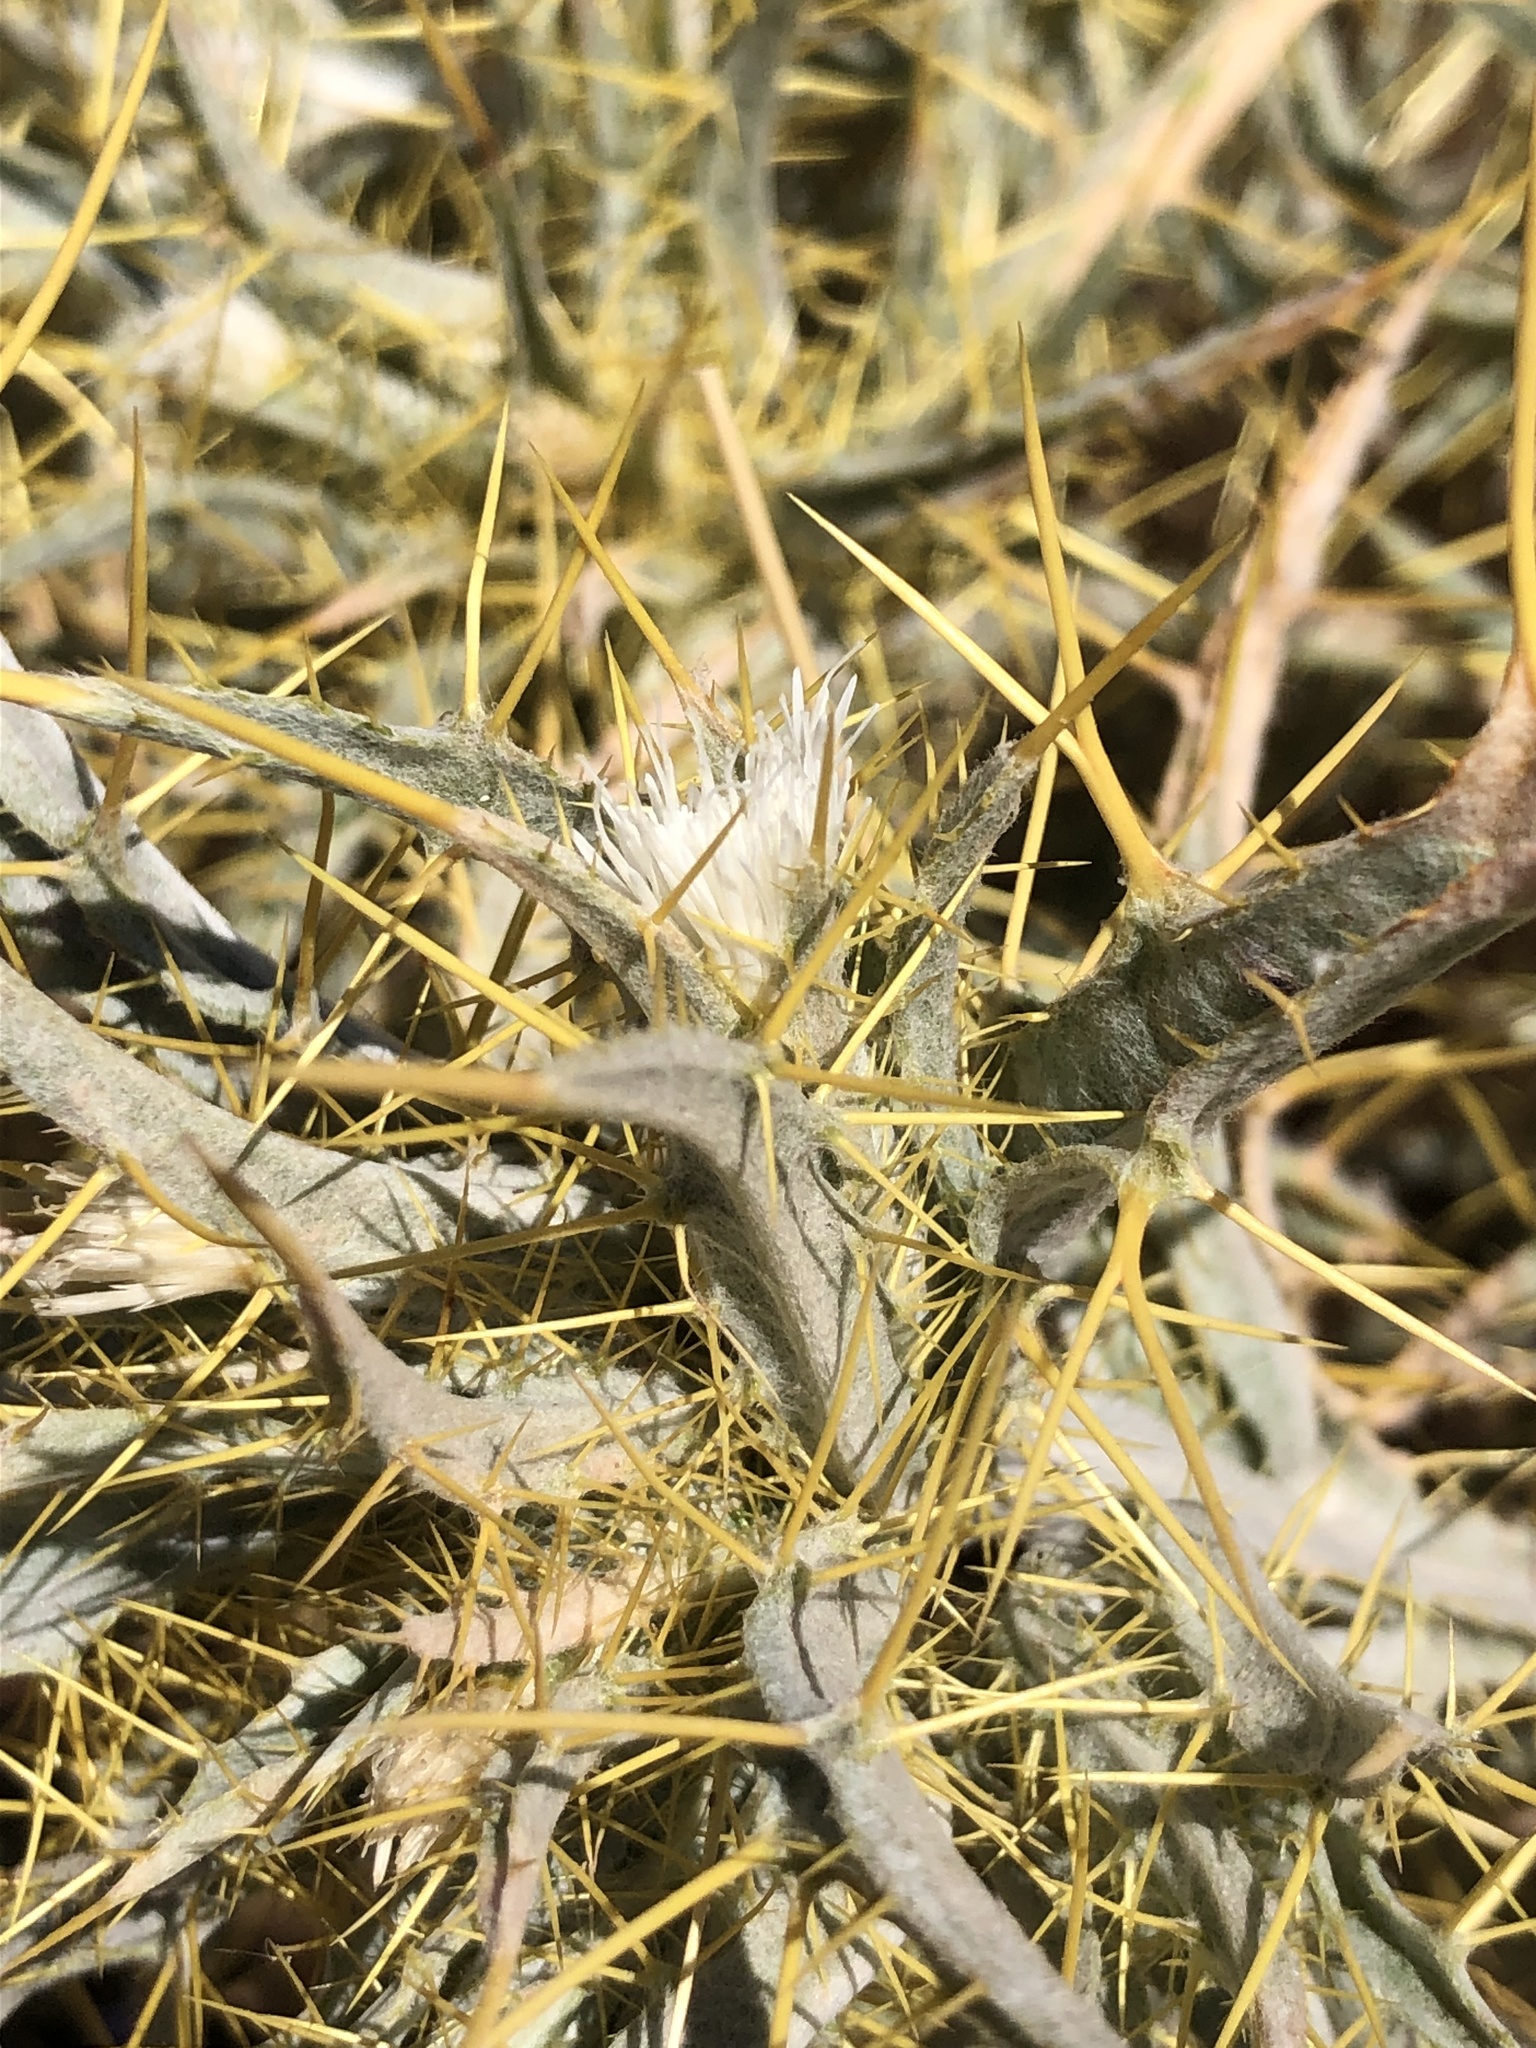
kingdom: Plantae
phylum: Tracheophyta
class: Magnoliopsida
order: Asterales
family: Asteraceae
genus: Picnomon
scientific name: Picnomon acarna
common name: Soldier thistle
